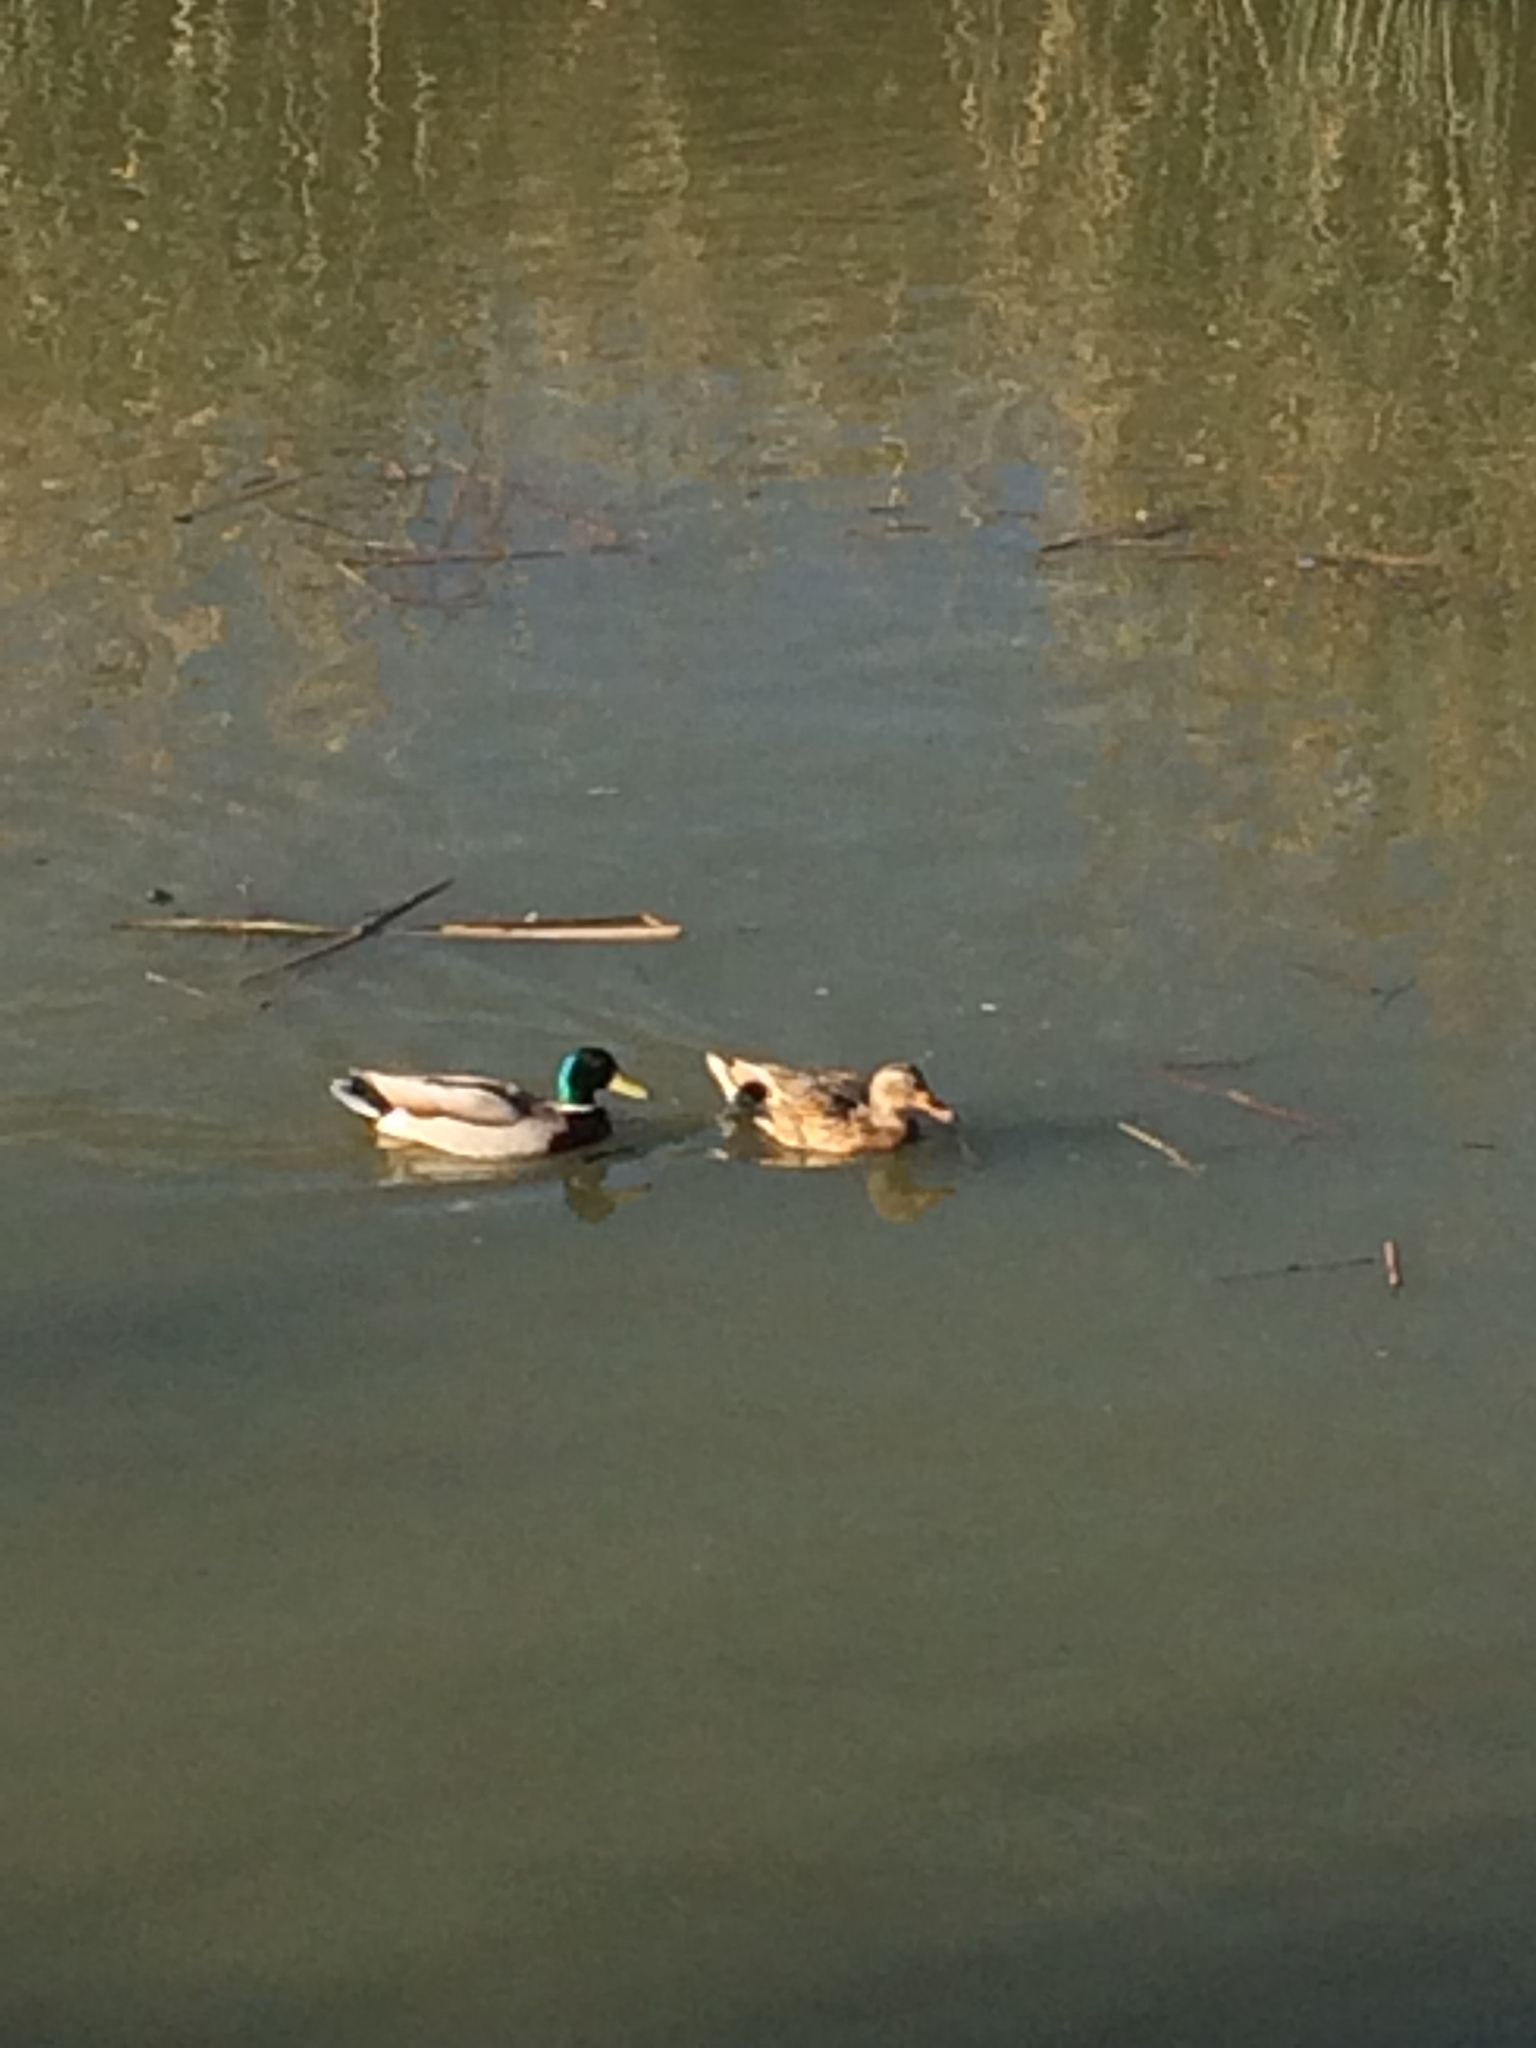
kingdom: Animalia
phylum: Chordata
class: Aves
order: Anseriformes
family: Anatidae
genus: Anas
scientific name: Anas platyrhynchos
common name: Mallard
